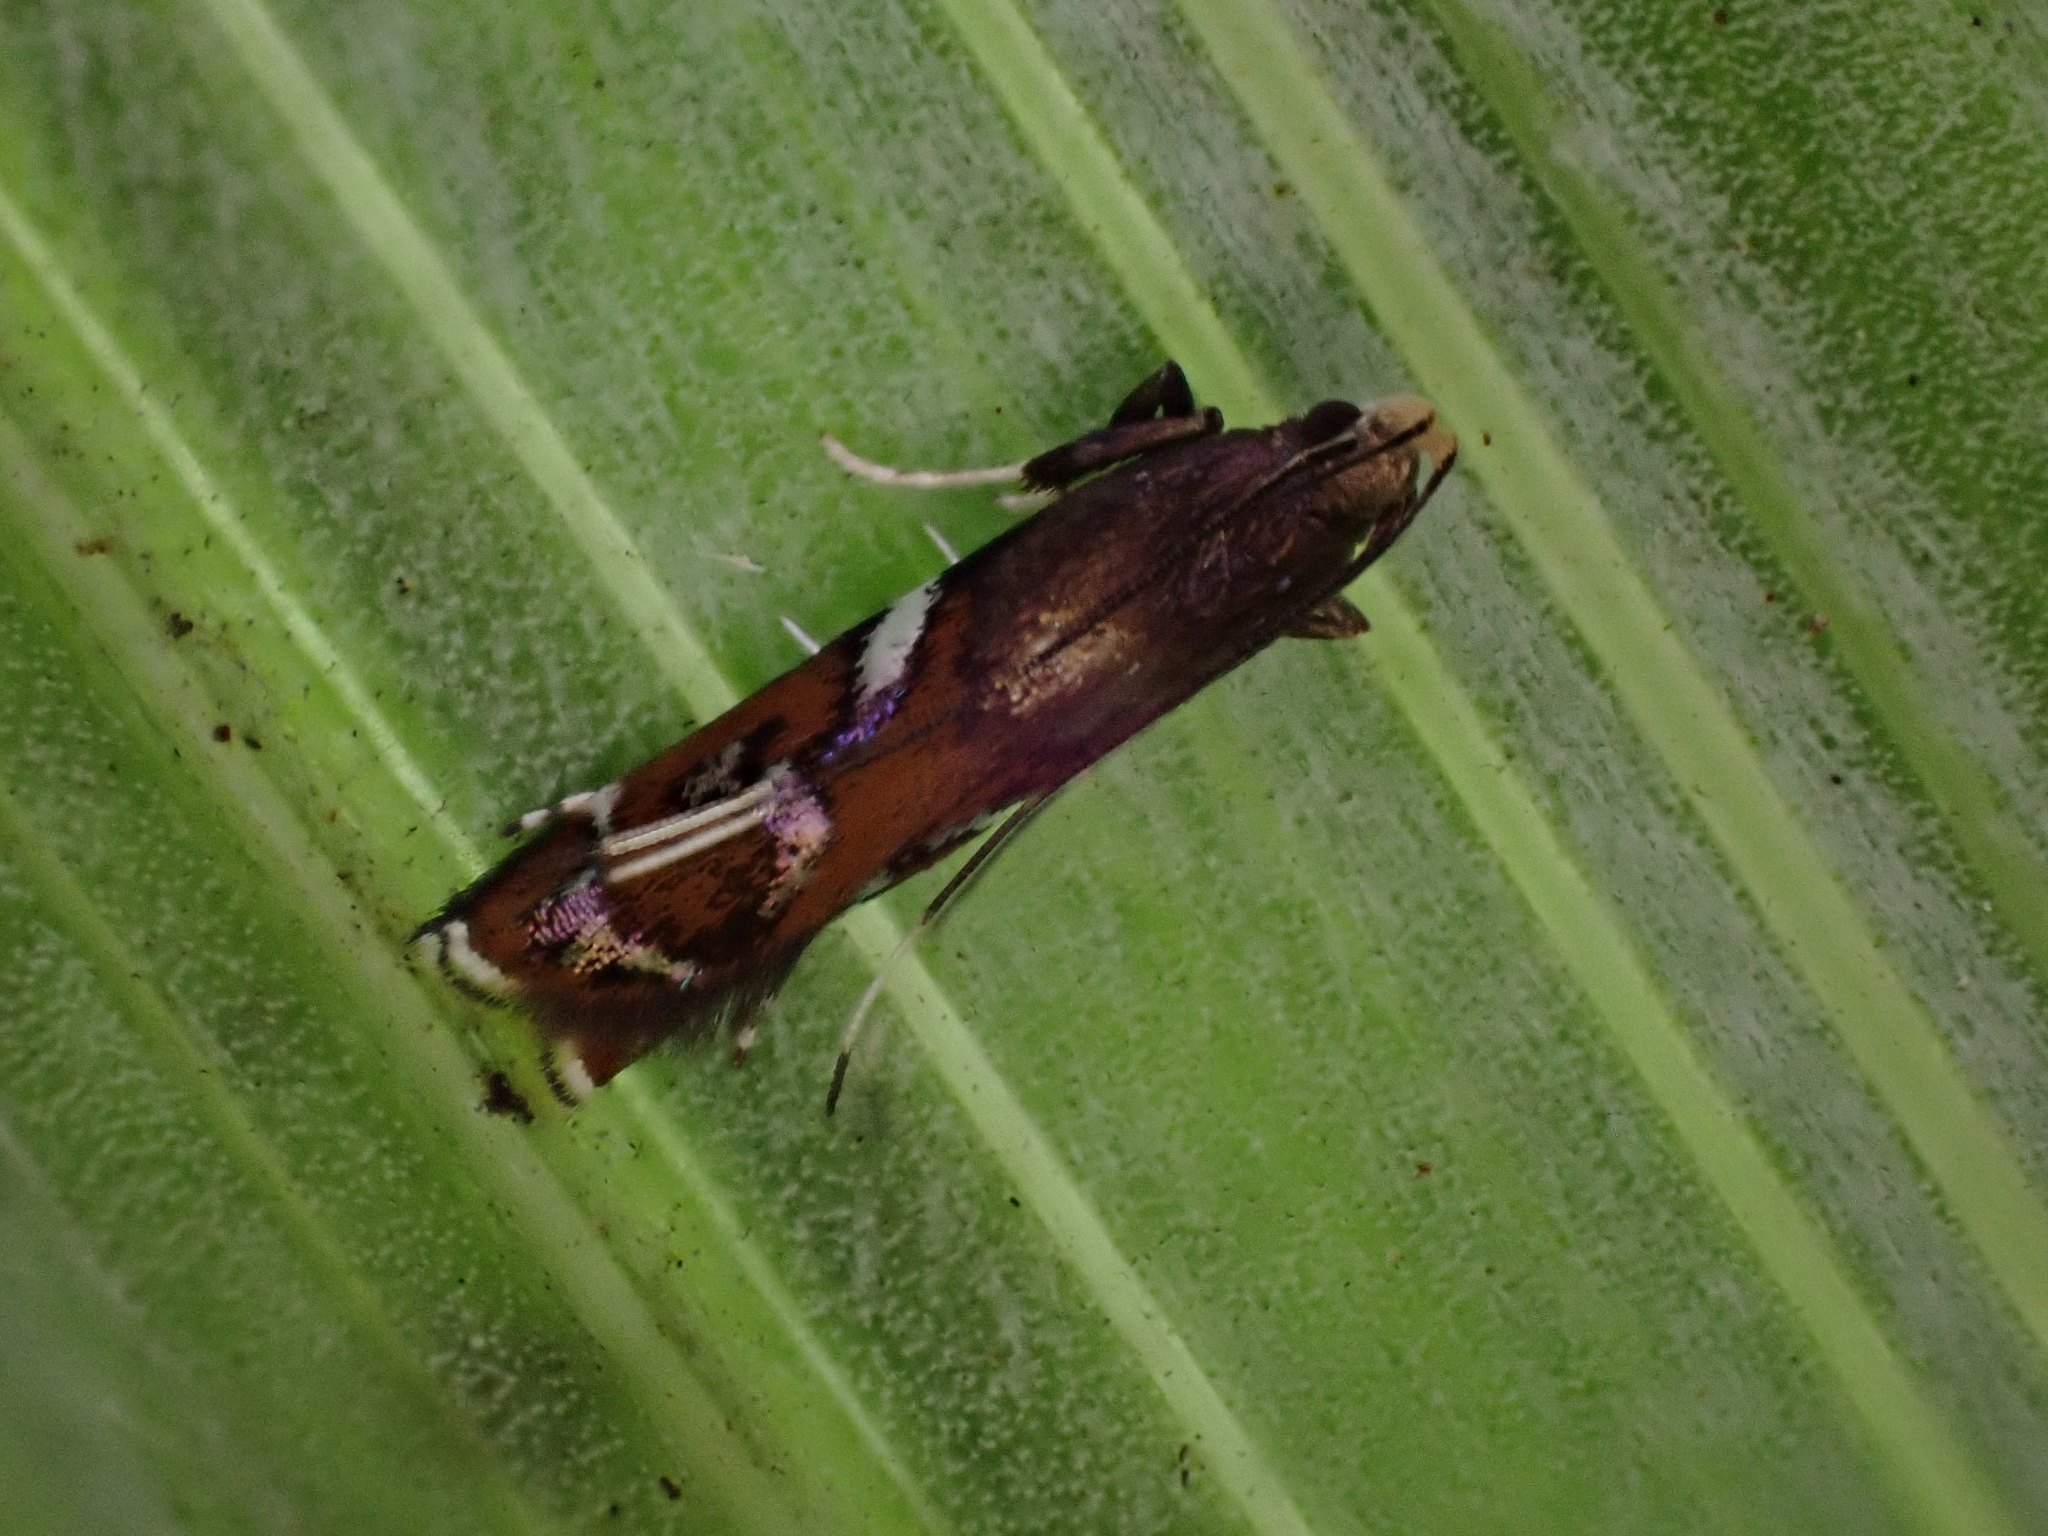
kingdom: Animalia
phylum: Arthropoda
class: Insecta
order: Lepidoptera
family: Depressariidae
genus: Compsistis
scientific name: Compsistis bifaciella
